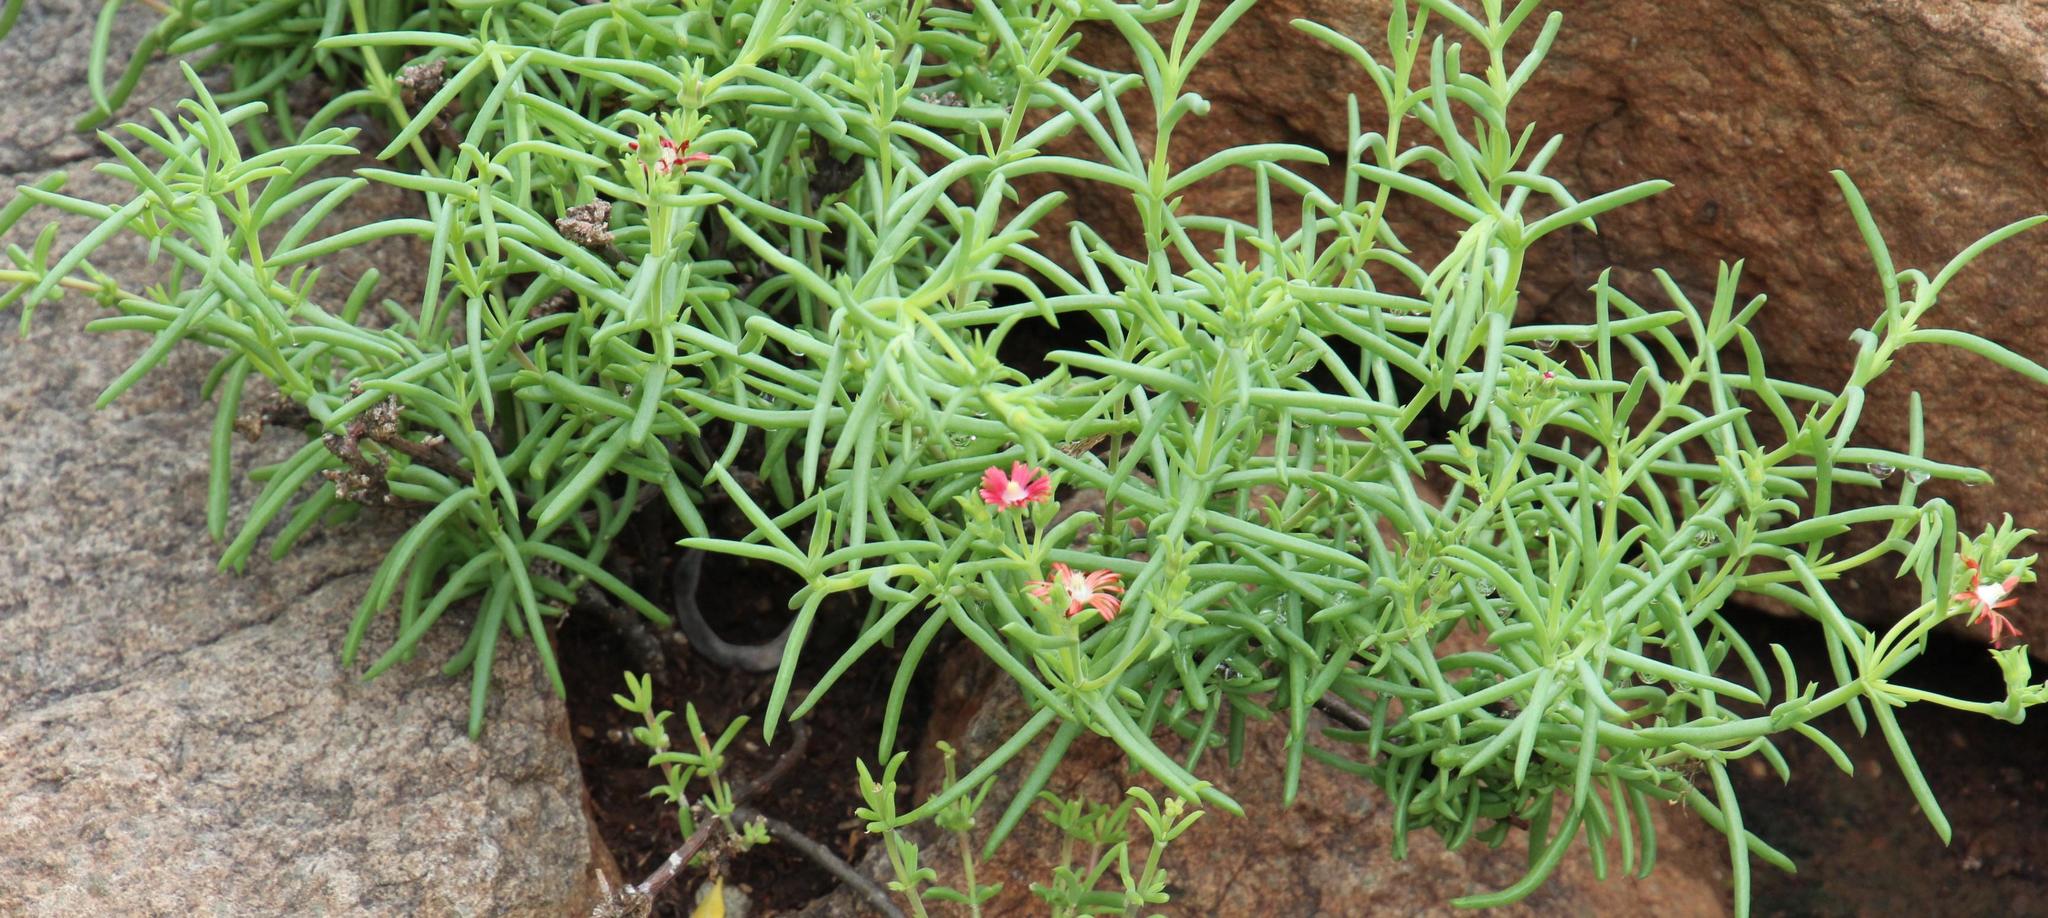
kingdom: Plantae
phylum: Tracheophyta
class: Magnoliopsida
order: Caryophyllales
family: Aizoaceae
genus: Delosperma
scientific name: Delosperma multiflorum
